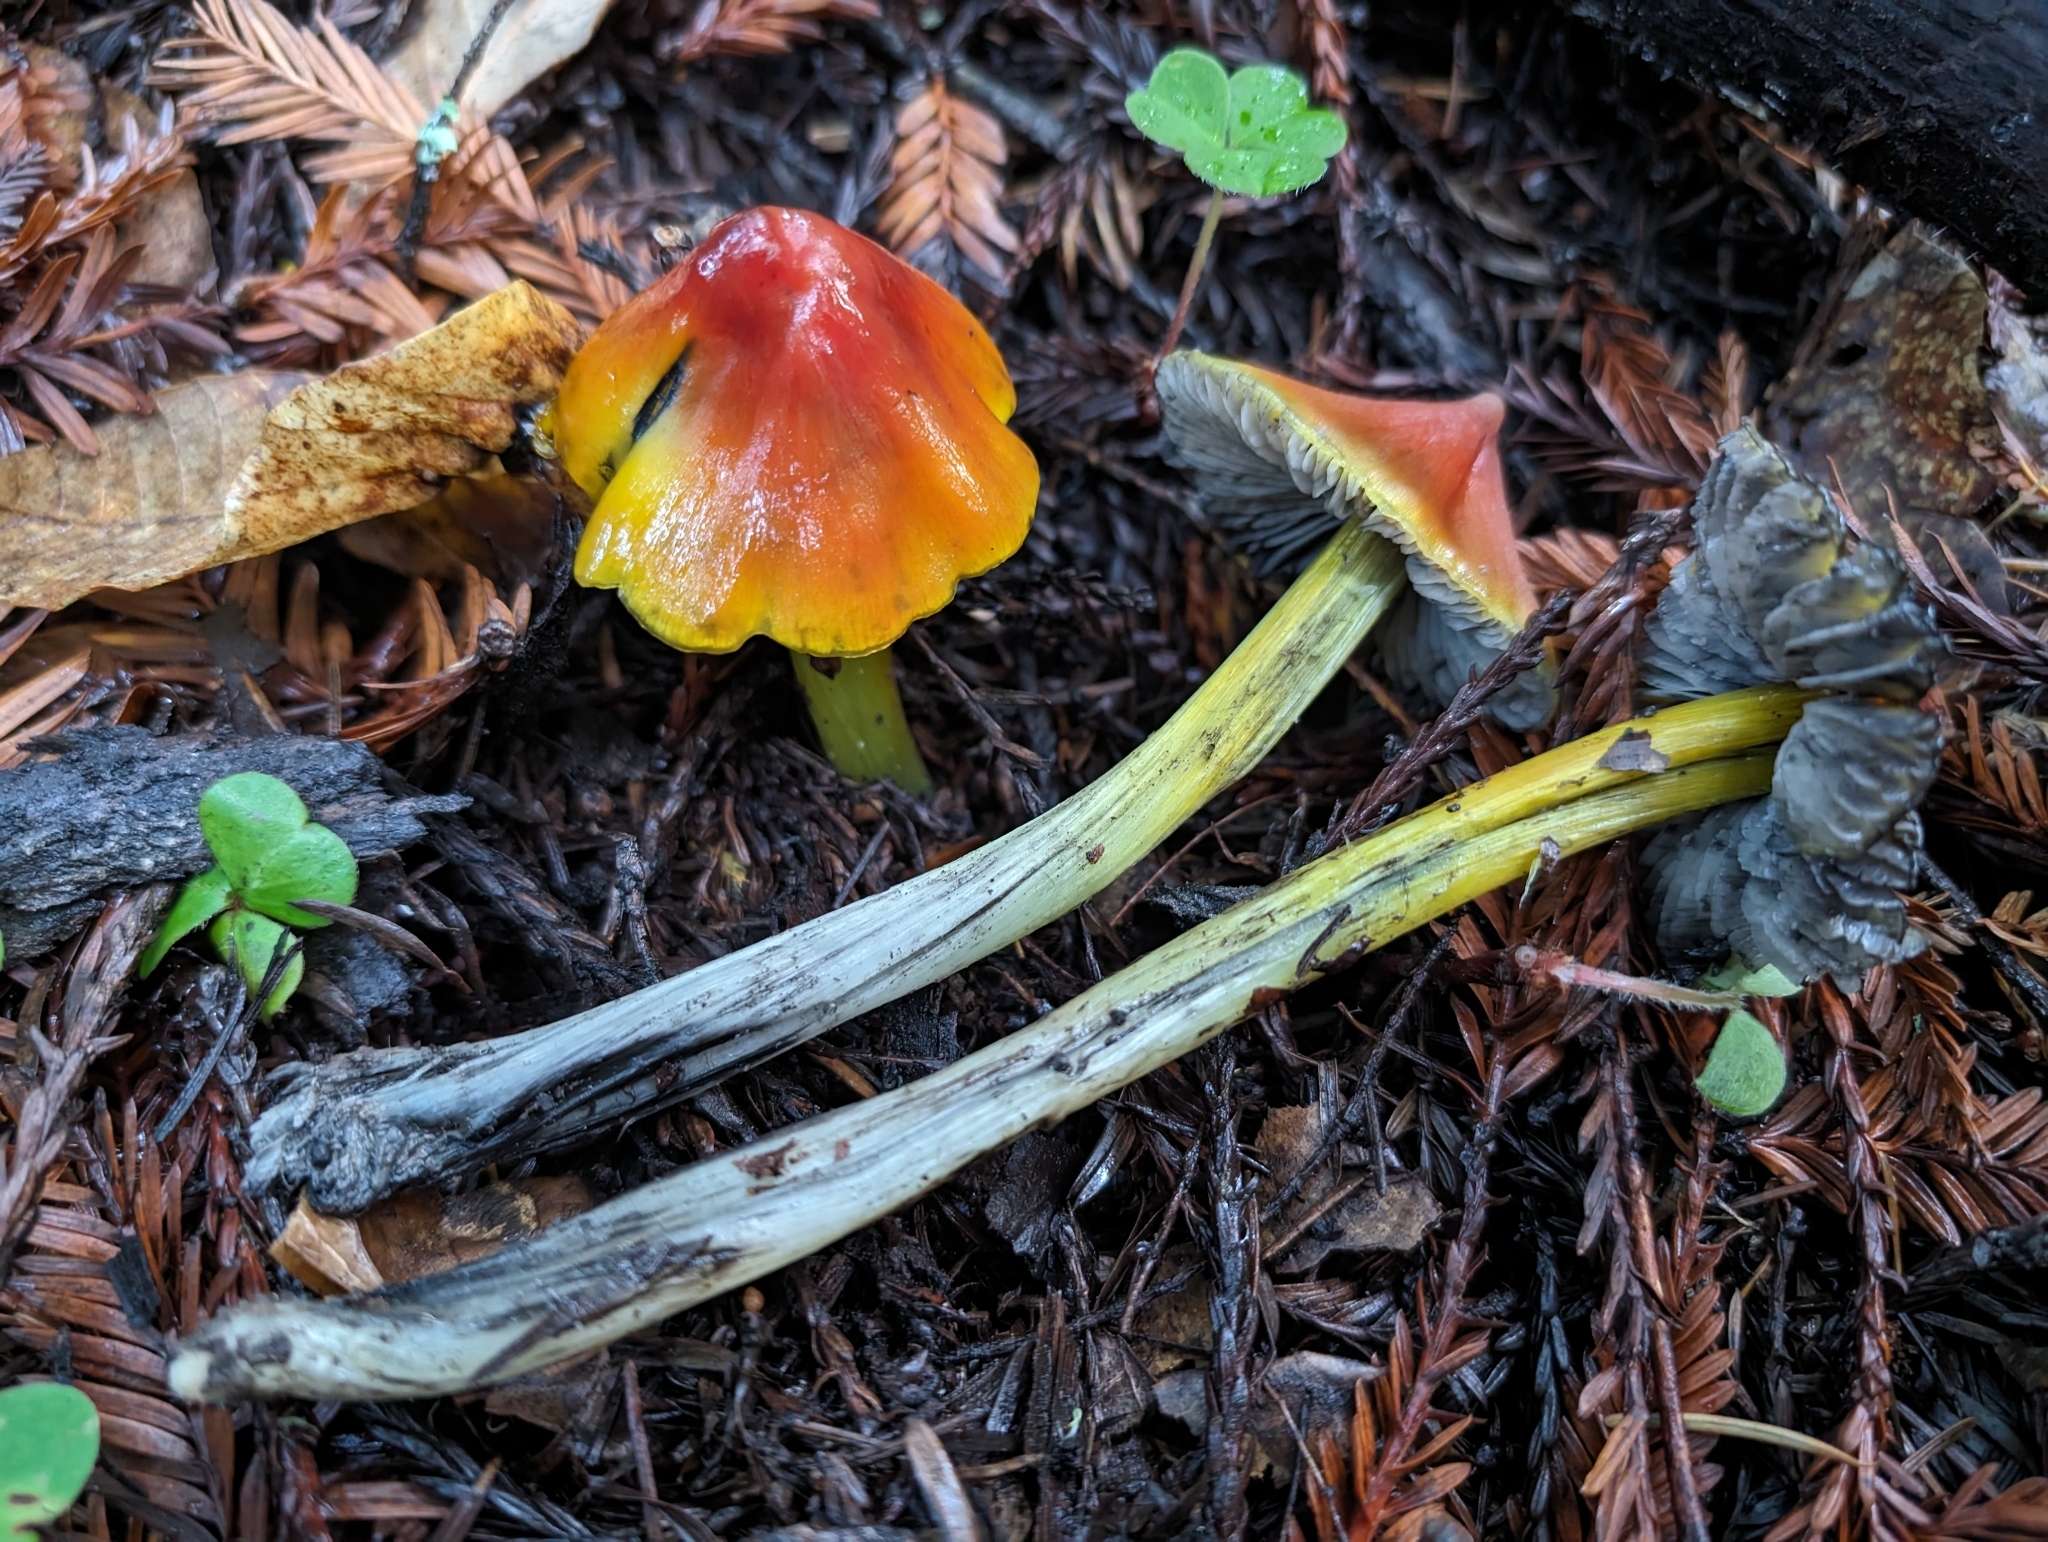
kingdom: Fungi
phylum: Basidiomycota
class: Agaricomycetes
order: Agaricales
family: Hygrophoraceae
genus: Hygrocybe
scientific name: Hygrocybe singeri
